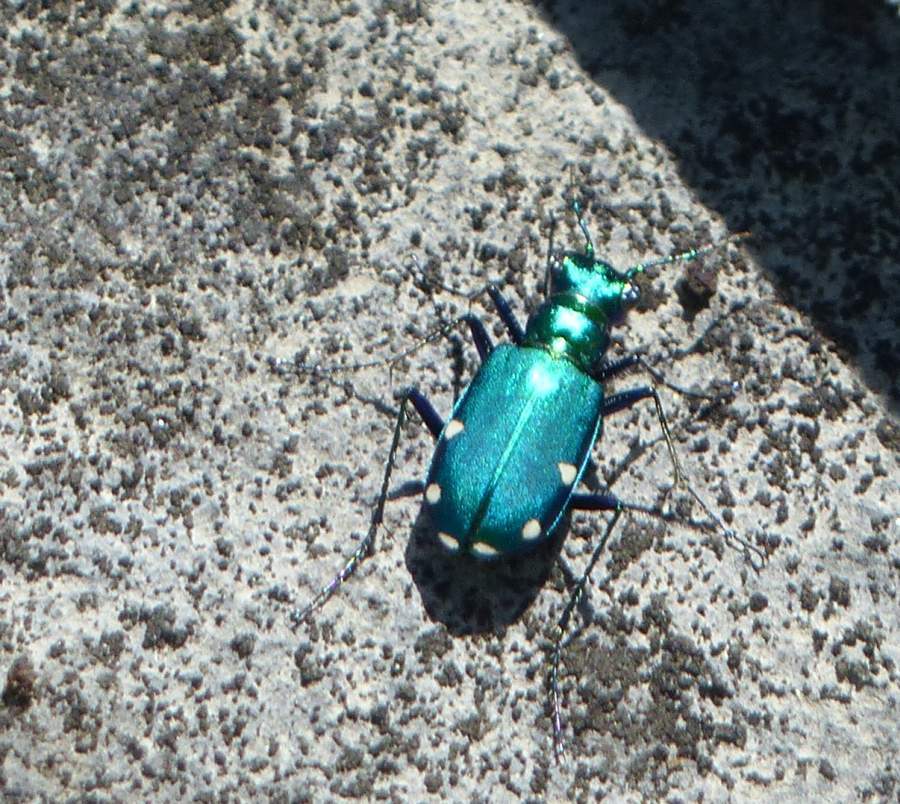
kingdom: Animalia
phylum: Arthropoda
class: Insecta
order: Coleoptera
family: Carabidae
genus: Cicindela
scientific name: Cicindela sexguttata
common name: Six-spotted tiger beetle
